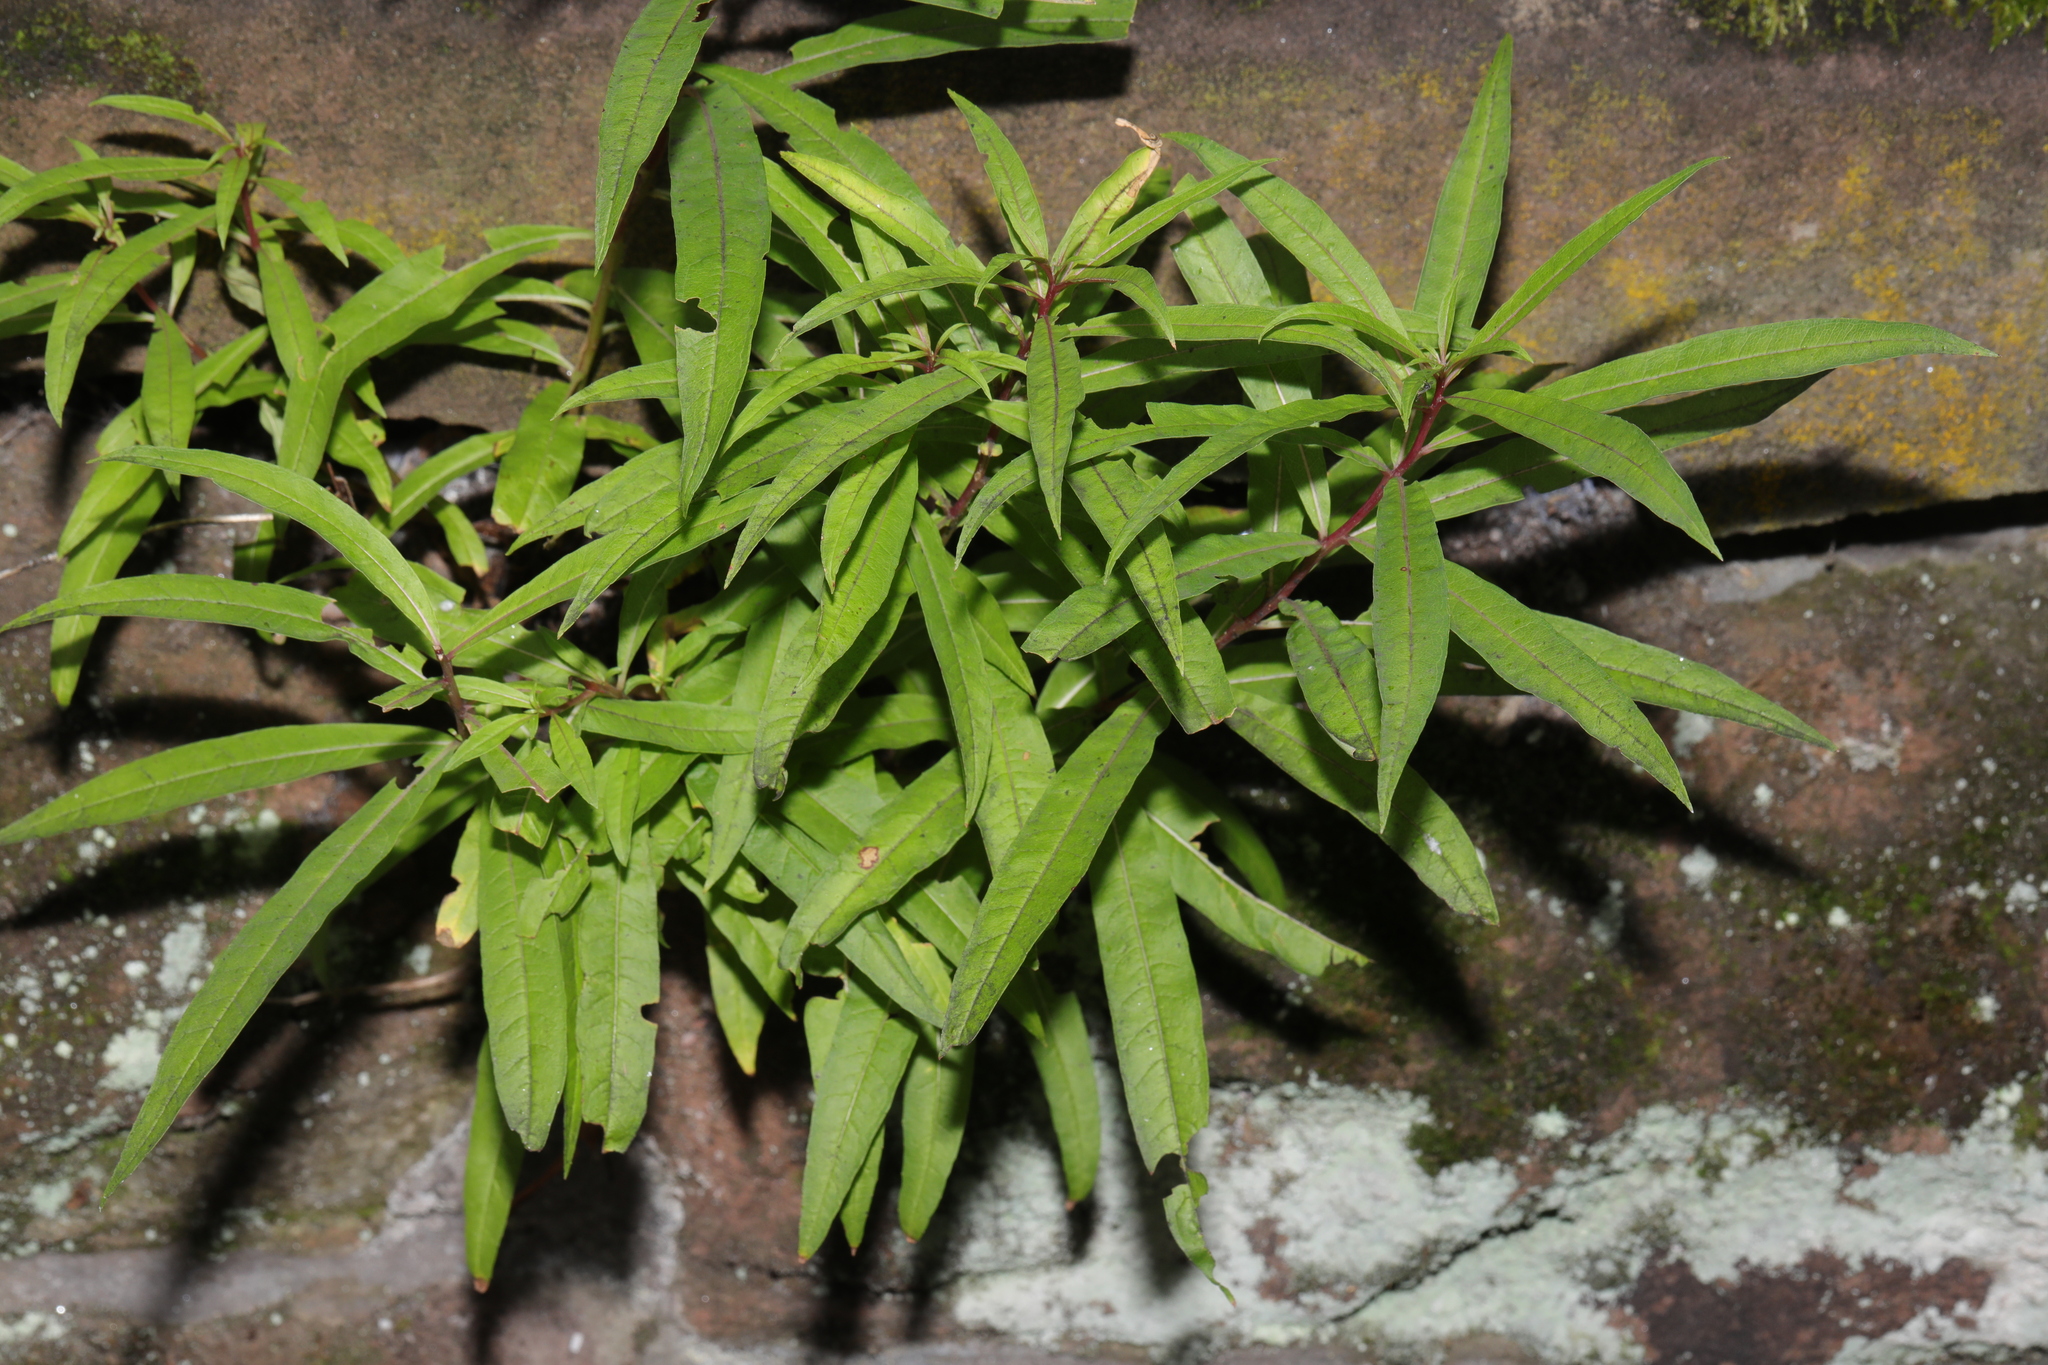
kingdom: Plantae
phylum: Tracheophyta
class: Magnoliopsida
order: Myrtales
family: Onagraceae
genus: Chamaenerion
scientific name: Chamaenerion angustifolium
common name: Fireweed
